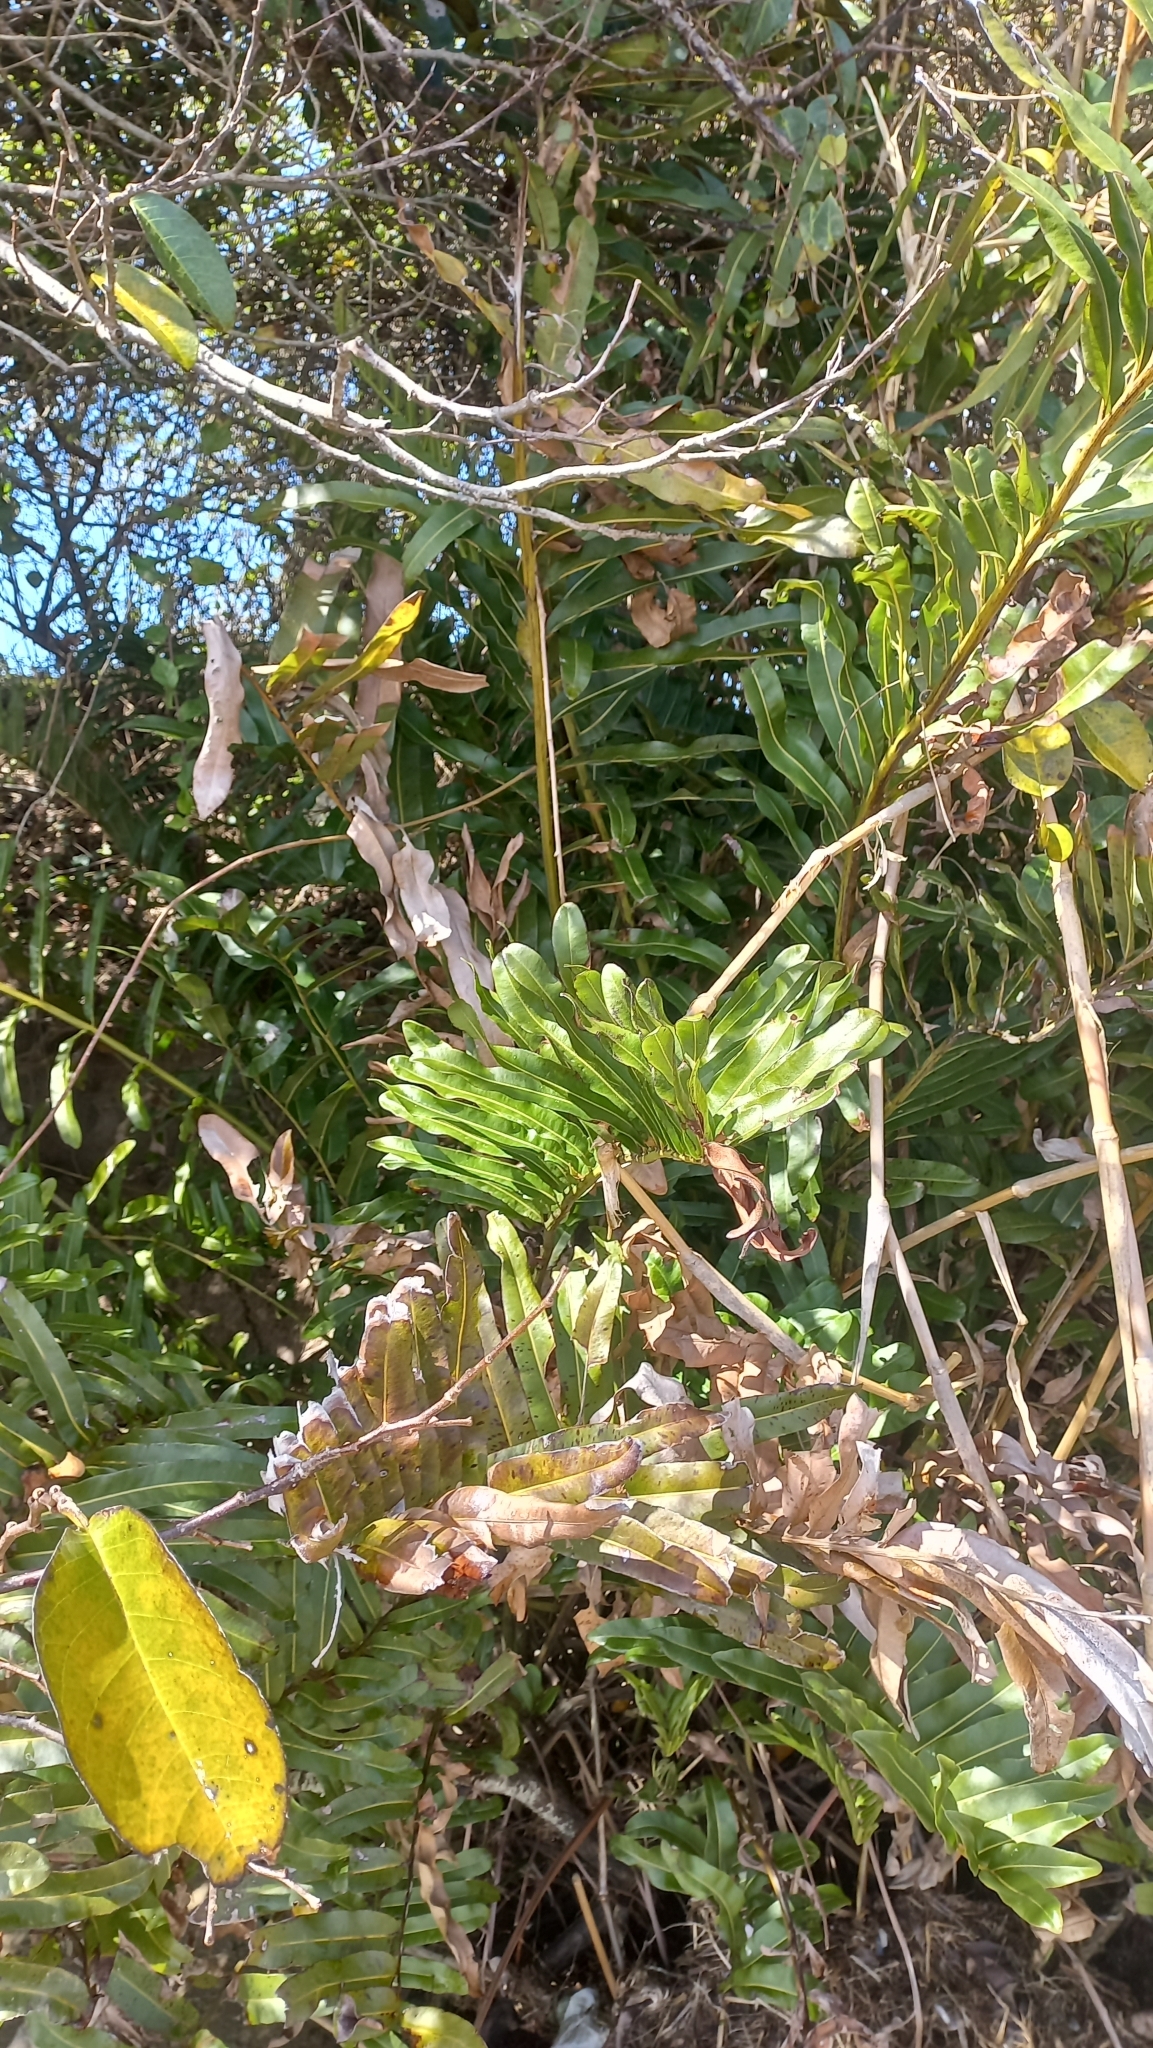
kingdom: Plantae
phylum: Tracheophyta
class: Polypodiopsida
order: Polypodiales
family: Pteridaceae
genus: Acrostichum
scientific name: Acrostichum danaeifolium
